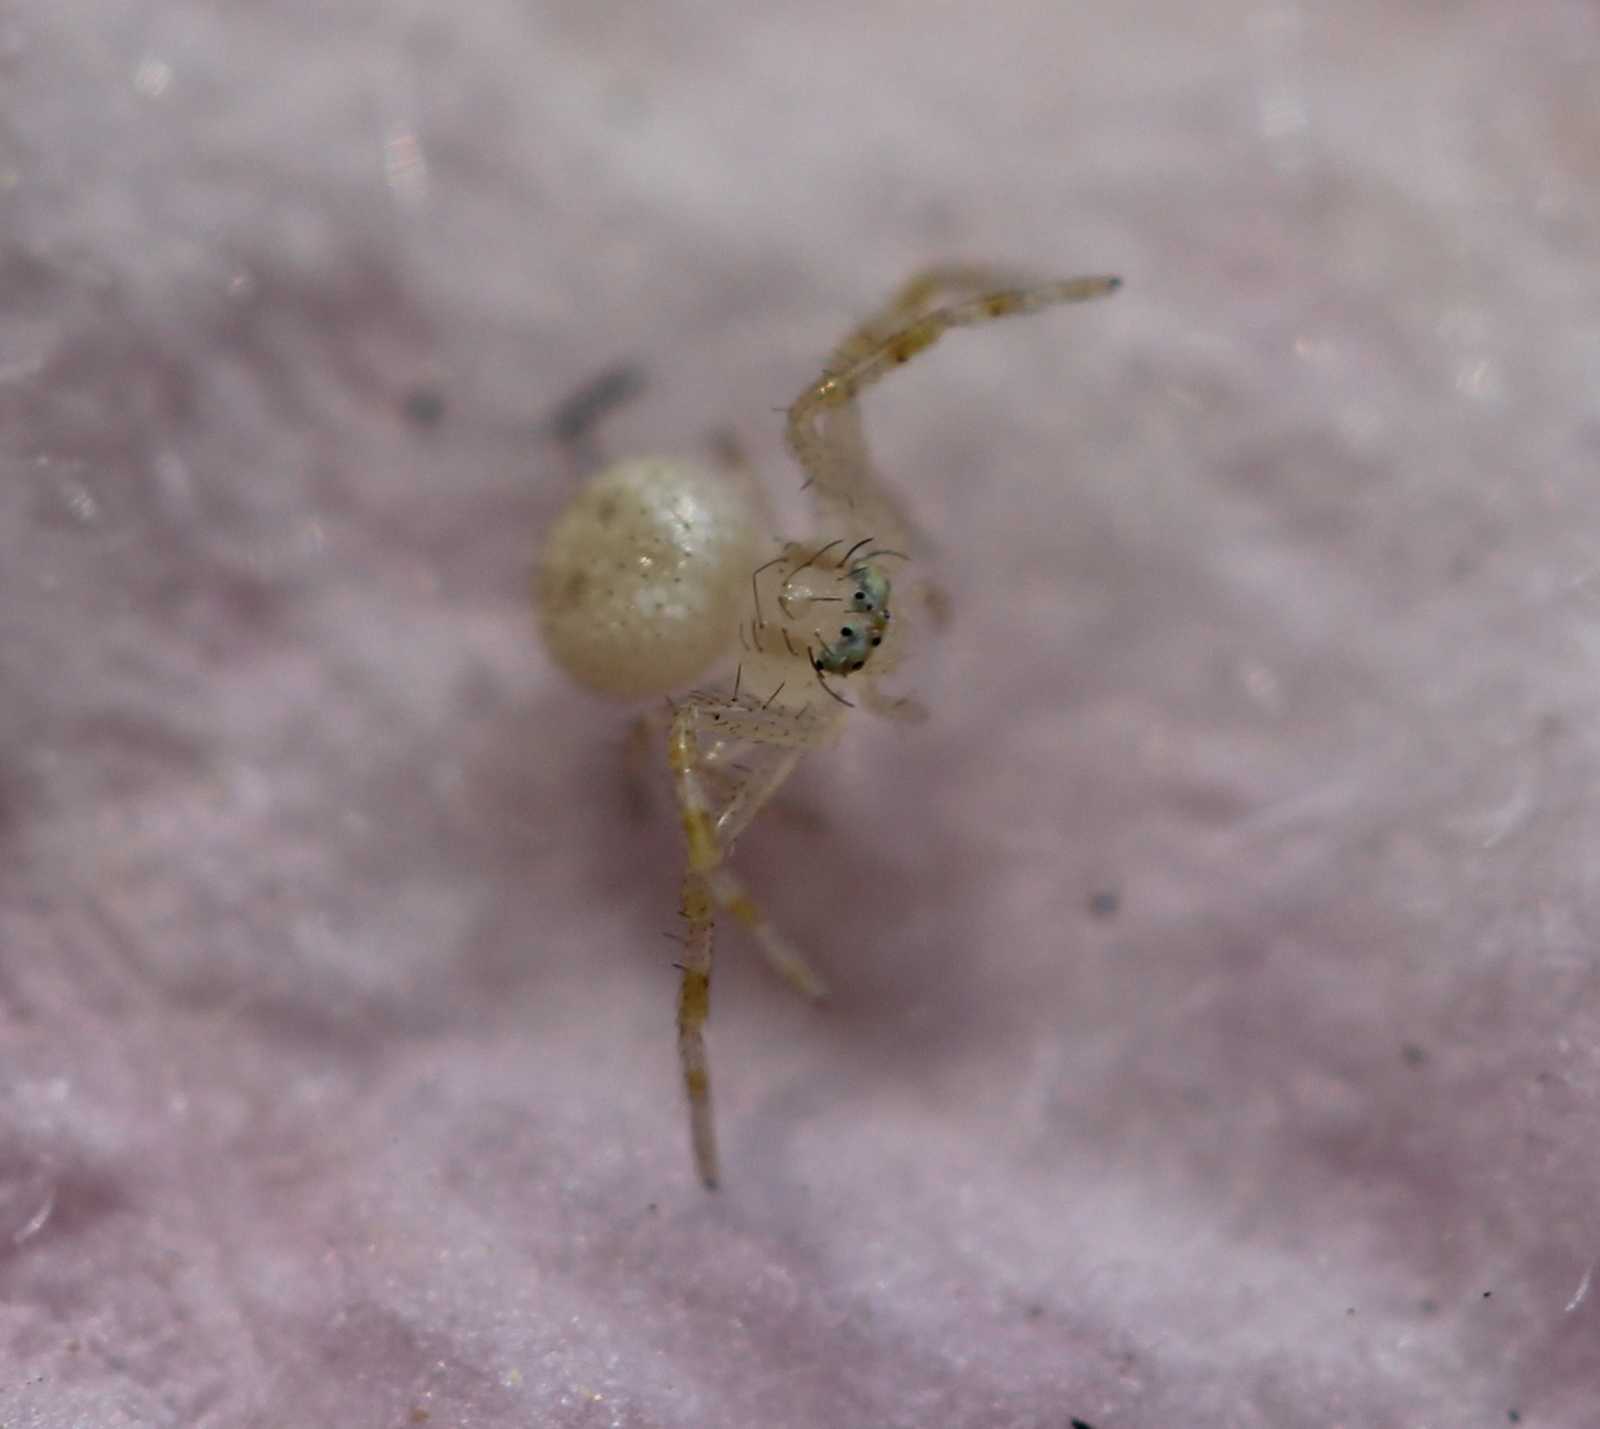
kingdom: Animalia
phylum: Arthropoda
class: Arachnida
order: Araneae
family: Thomisidae
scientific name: Thomisidae
